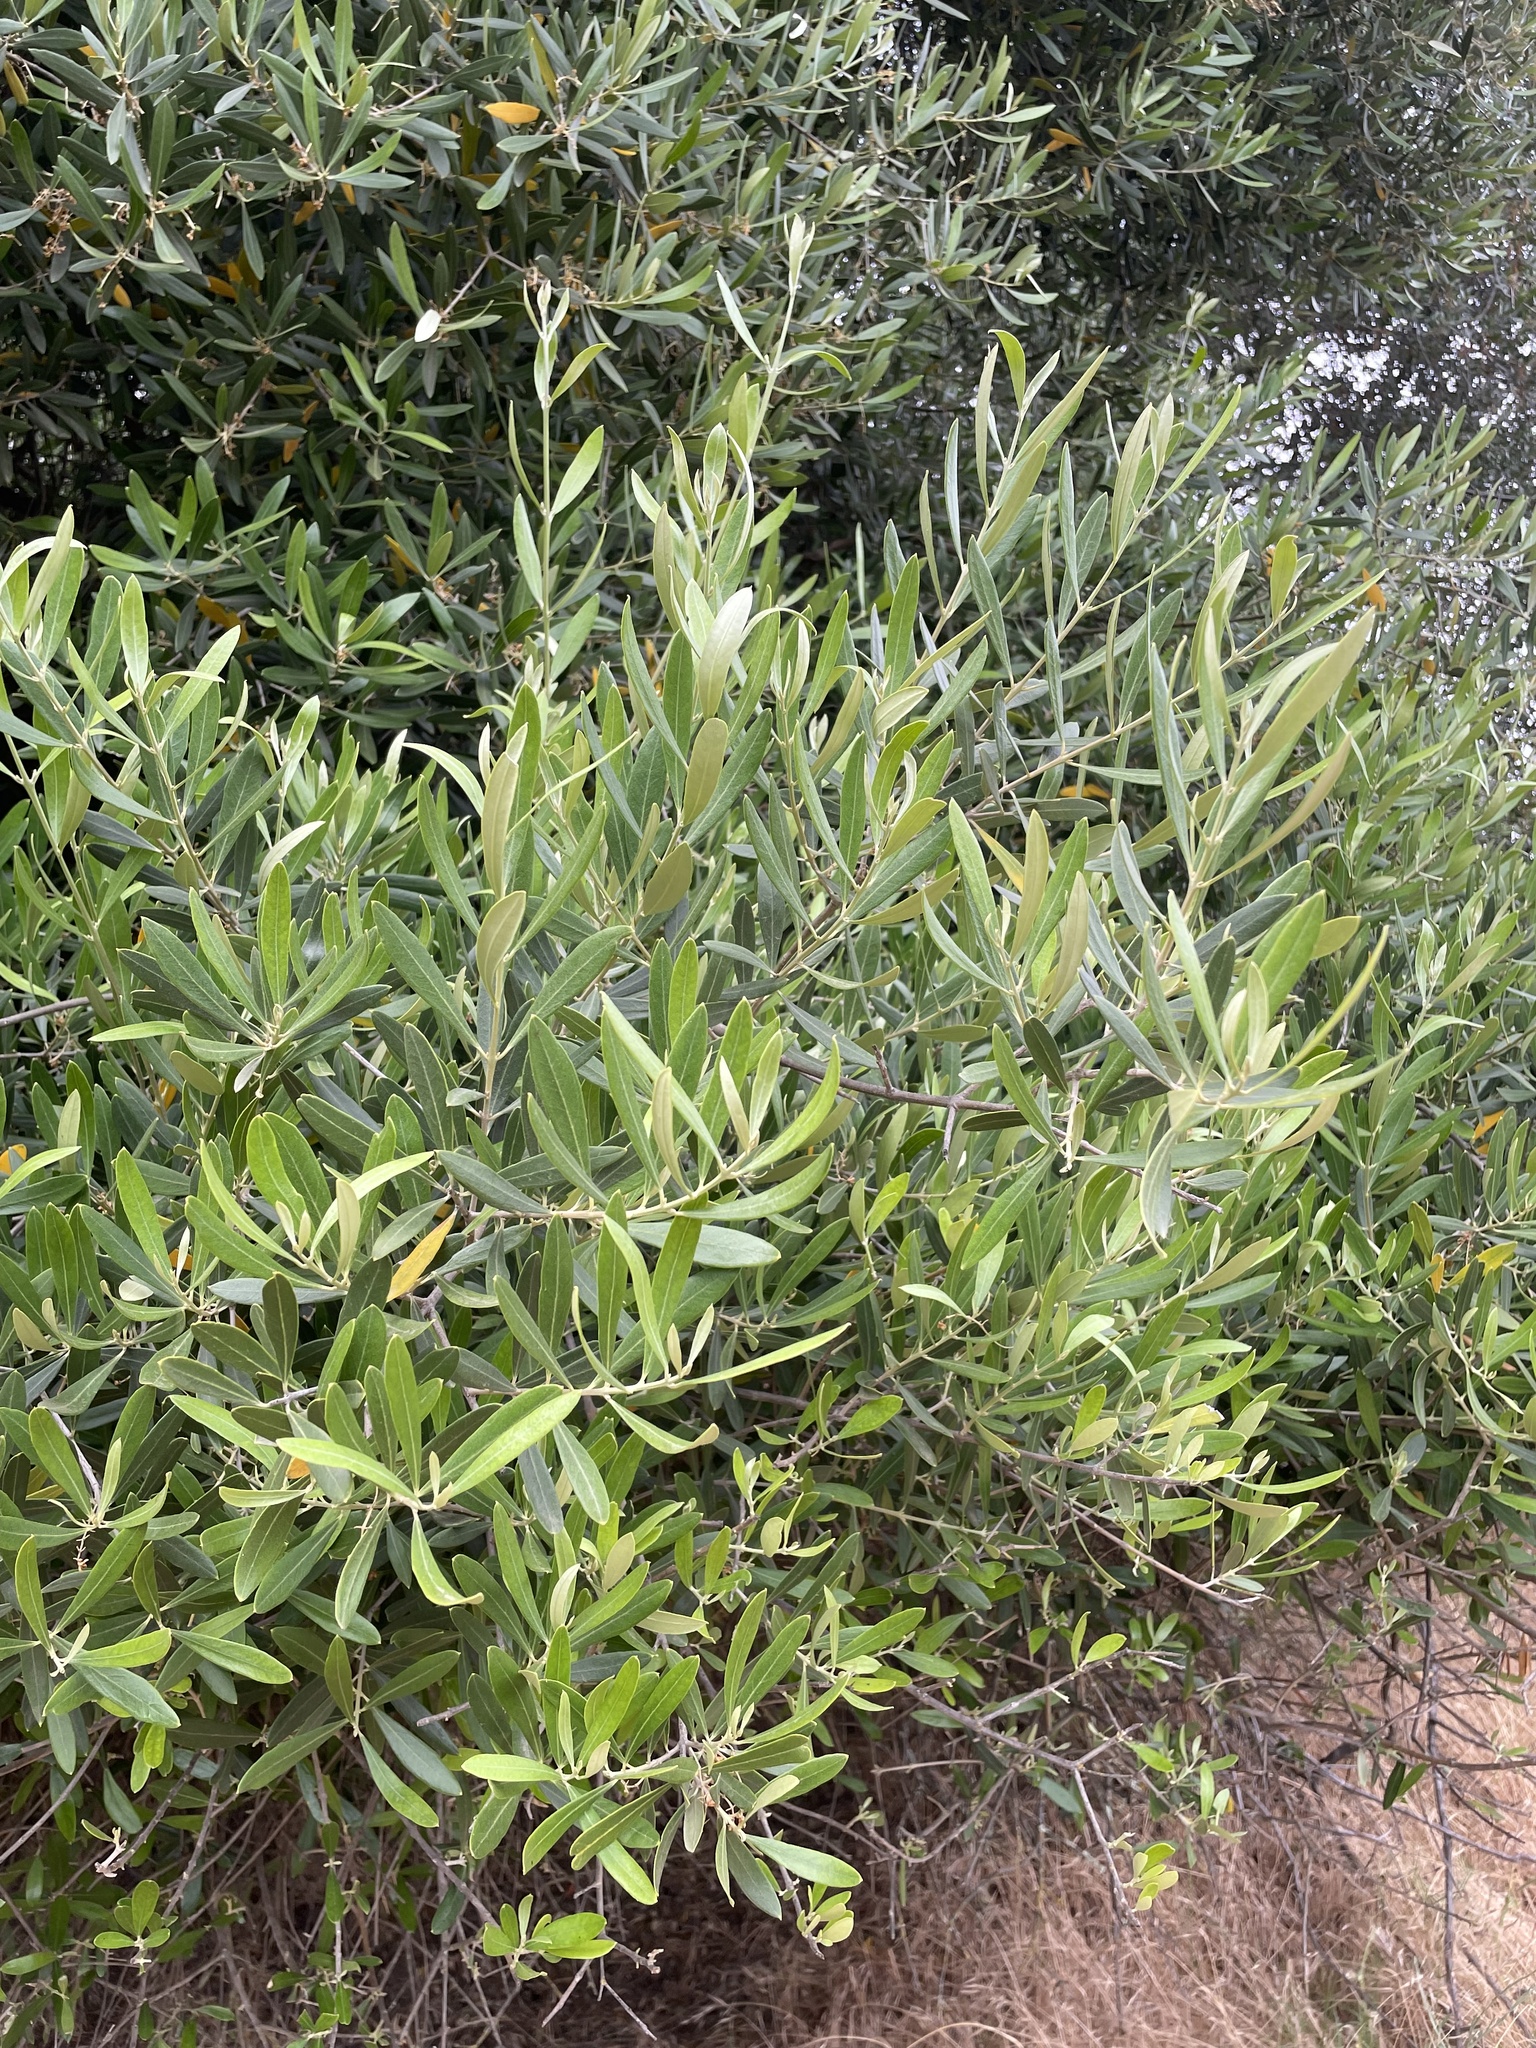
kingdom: Plantae
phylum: Tracheophyta
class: Magnoliopsida
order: Lamiales
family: Oleaceae
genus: Olea
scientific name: Olea europaea
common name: Olive
